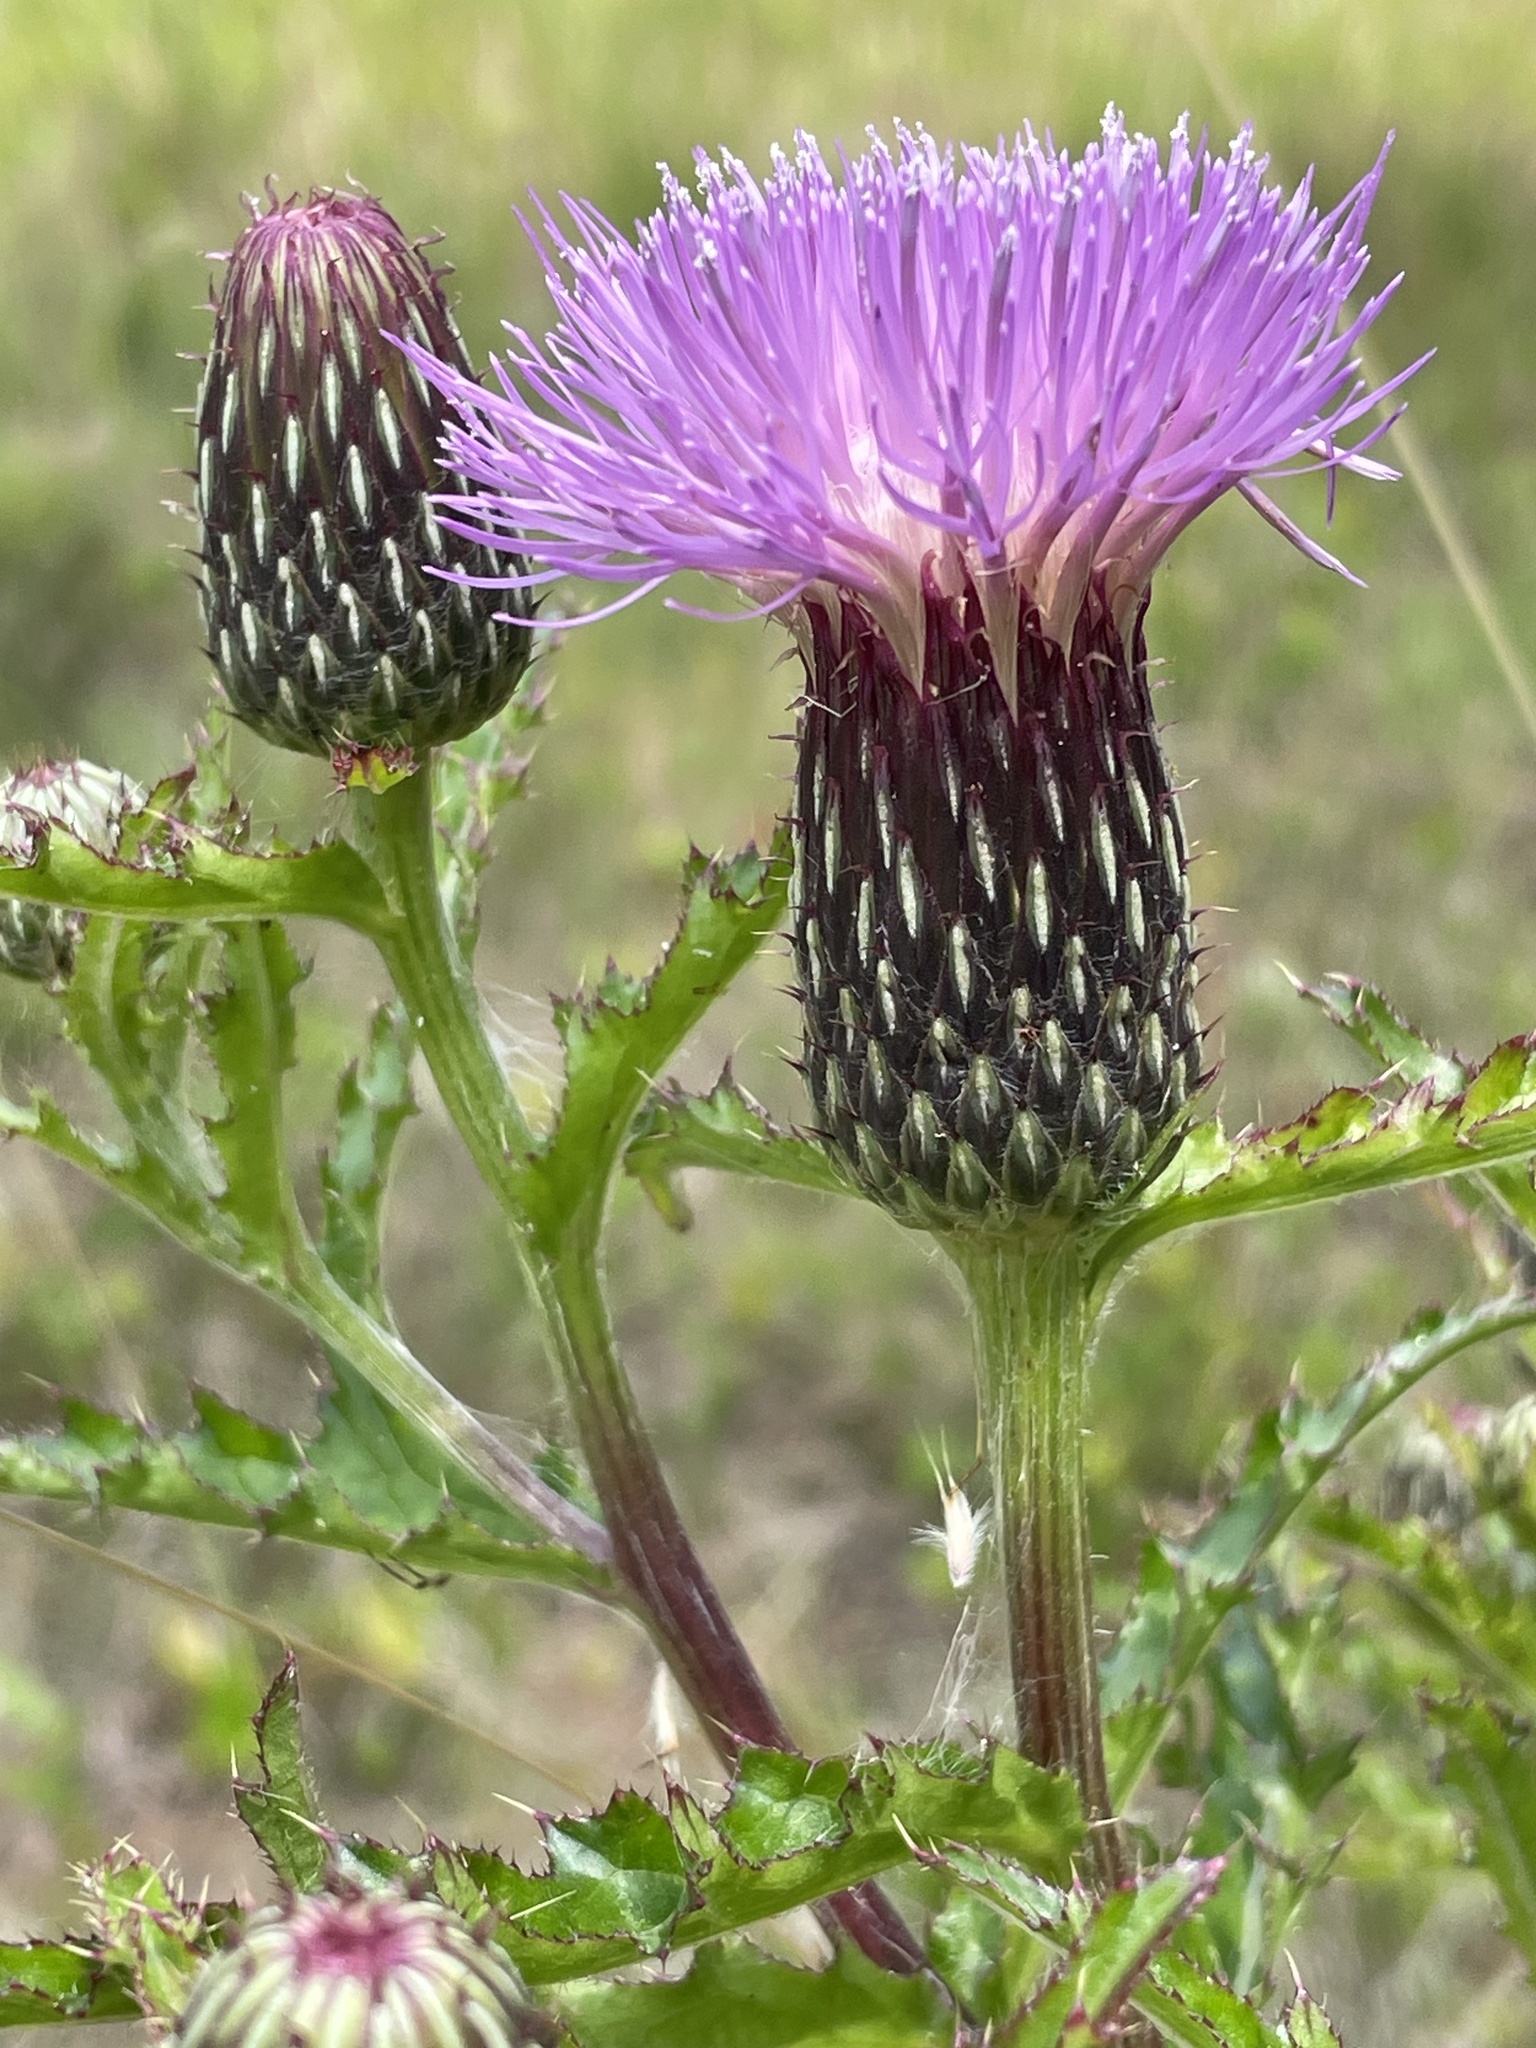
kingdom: Plantae
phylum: Tracheophyta
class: Magnoliopsida
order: Asterales
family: Asteraceae
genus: Cirsium
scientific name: Cirsium repandum
